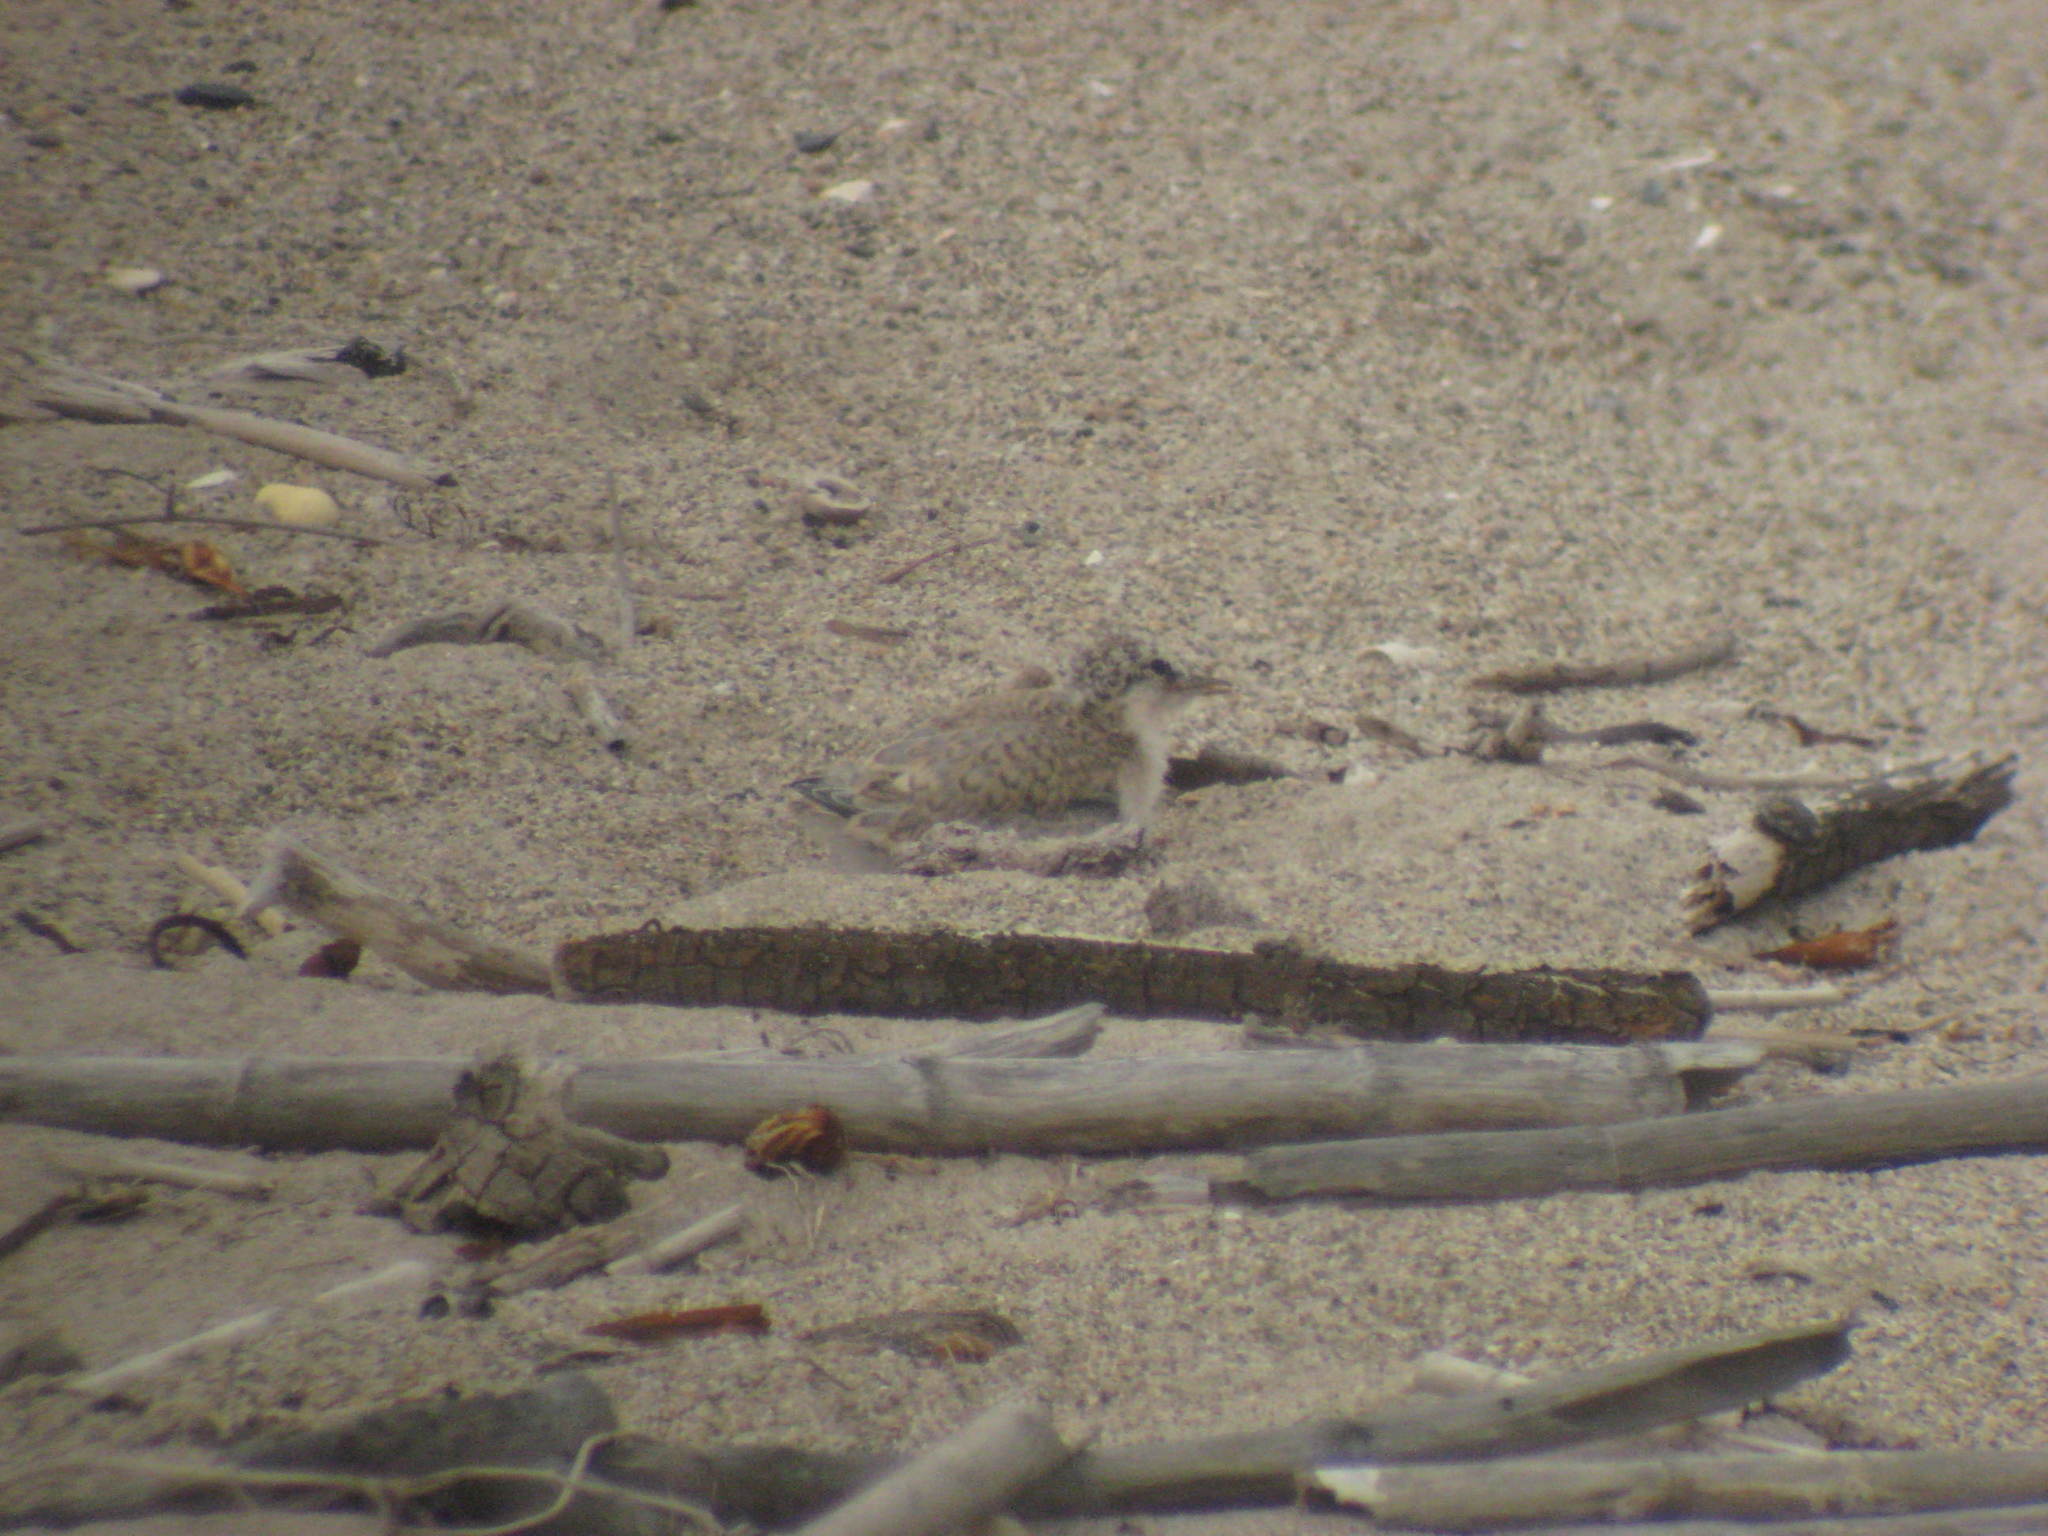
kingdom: Animalia
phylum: Chordata
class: Aves
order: Charadriiformes
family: Laridae
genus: Sternula
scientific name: Sternula antillarum
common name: Least tern
